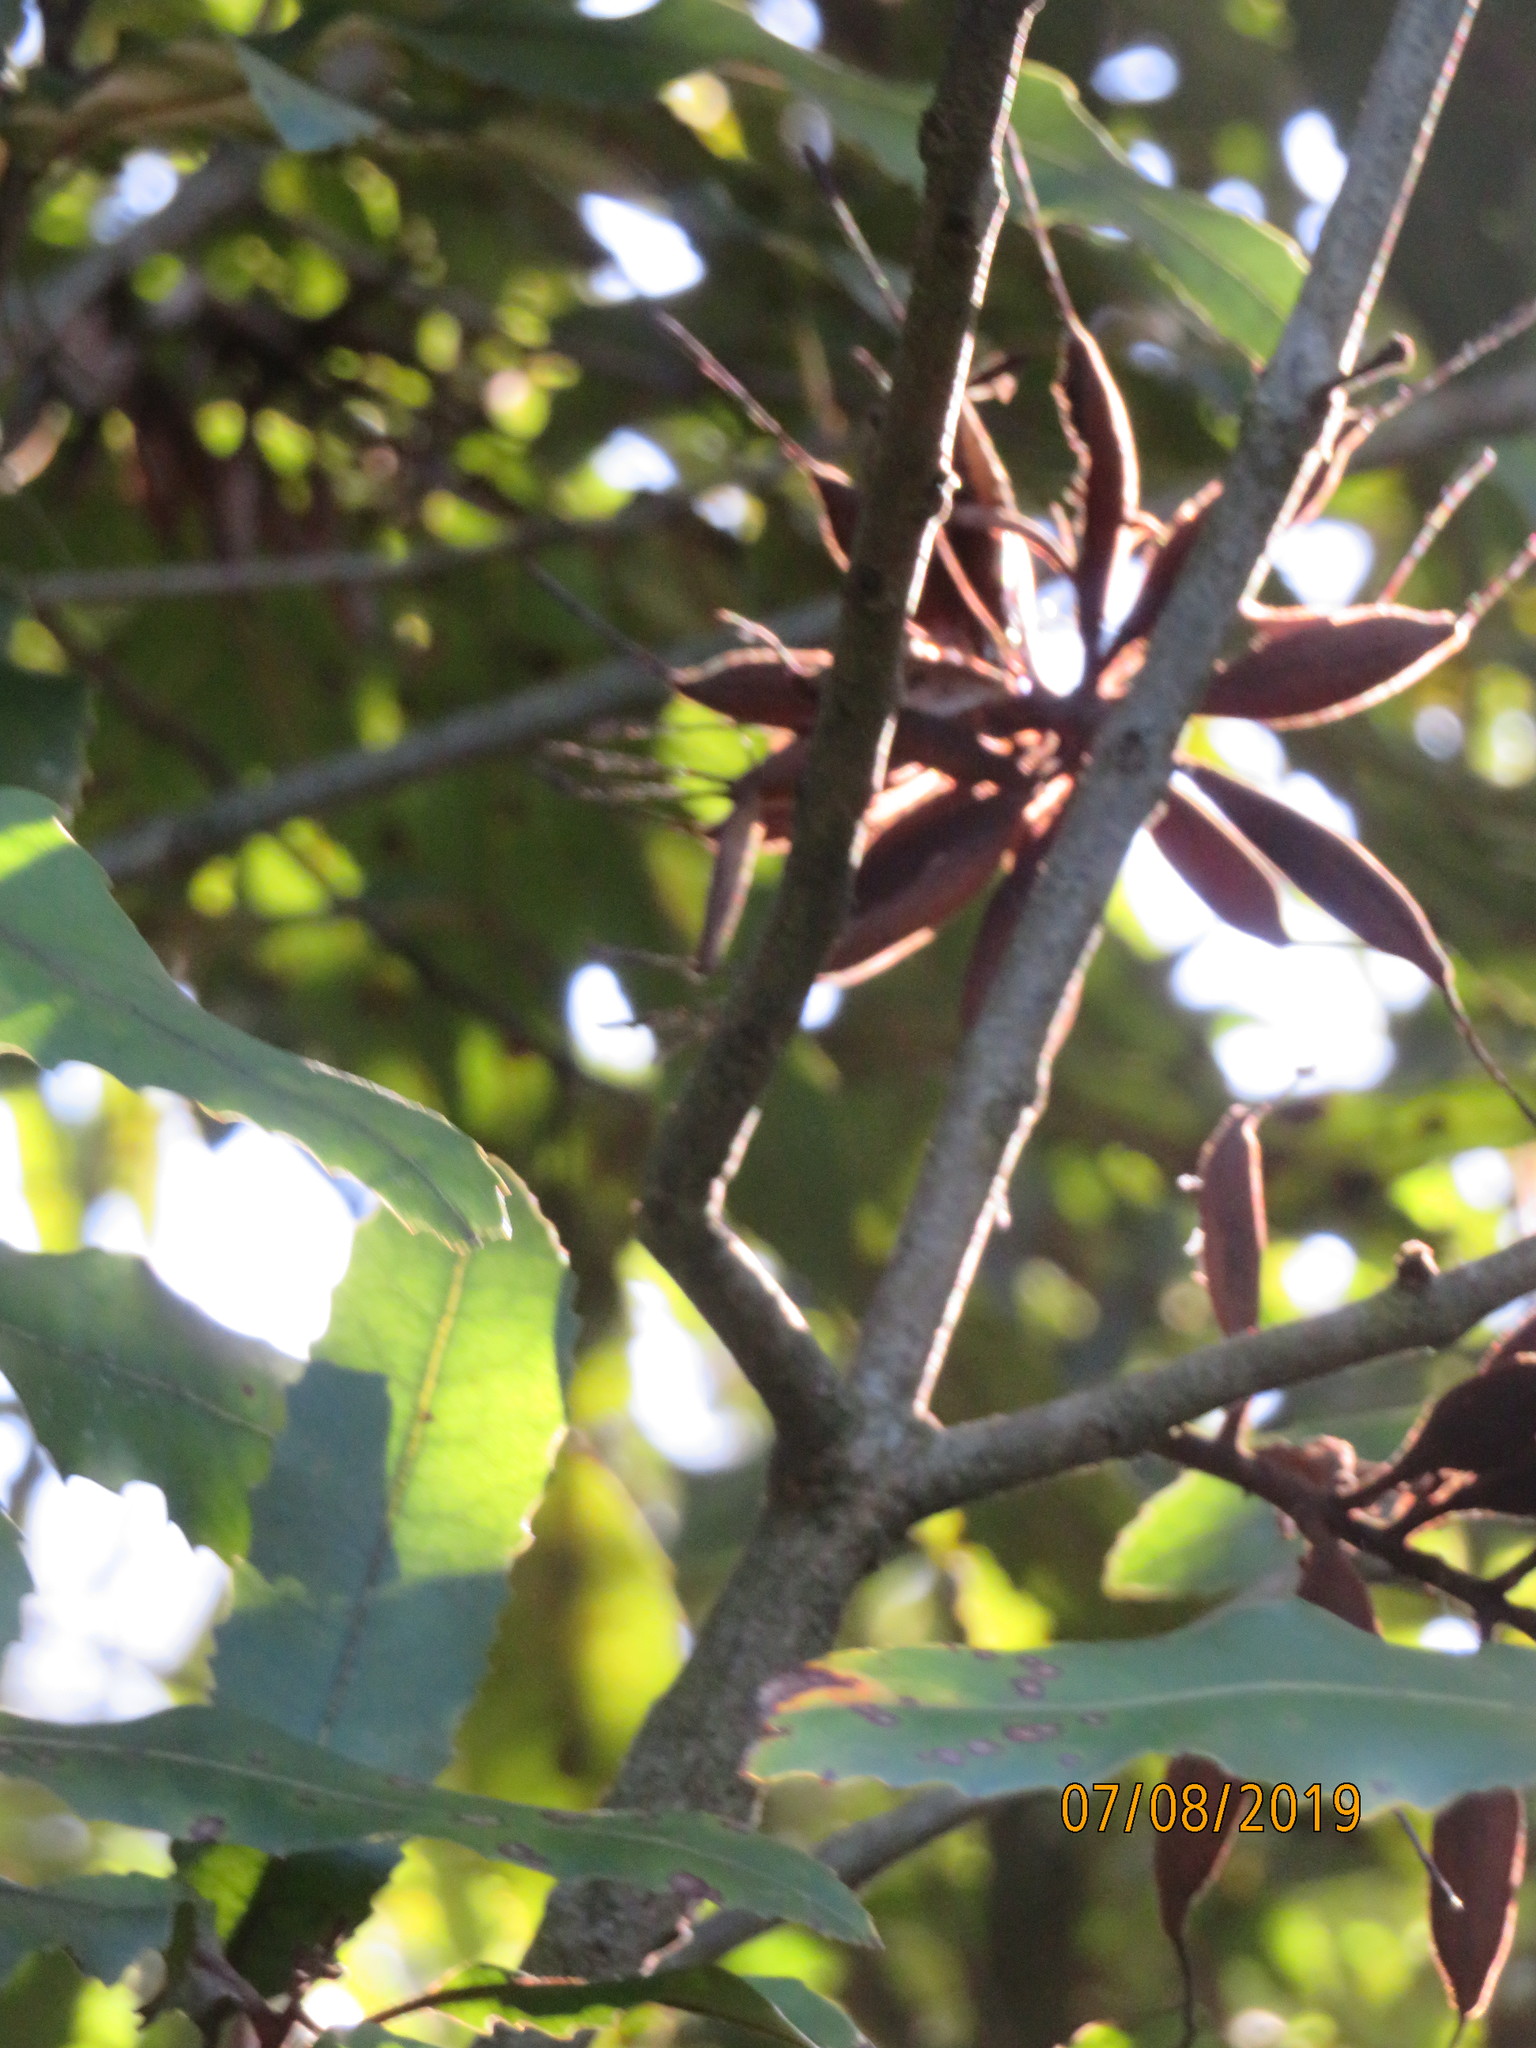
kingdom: Plantae
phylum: Tracheophyta
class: Magnoliopsida
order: Proteales
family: Proteaceae
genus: Knightia
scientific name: Knightia excelsa
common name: New zealand-honeysuckle
